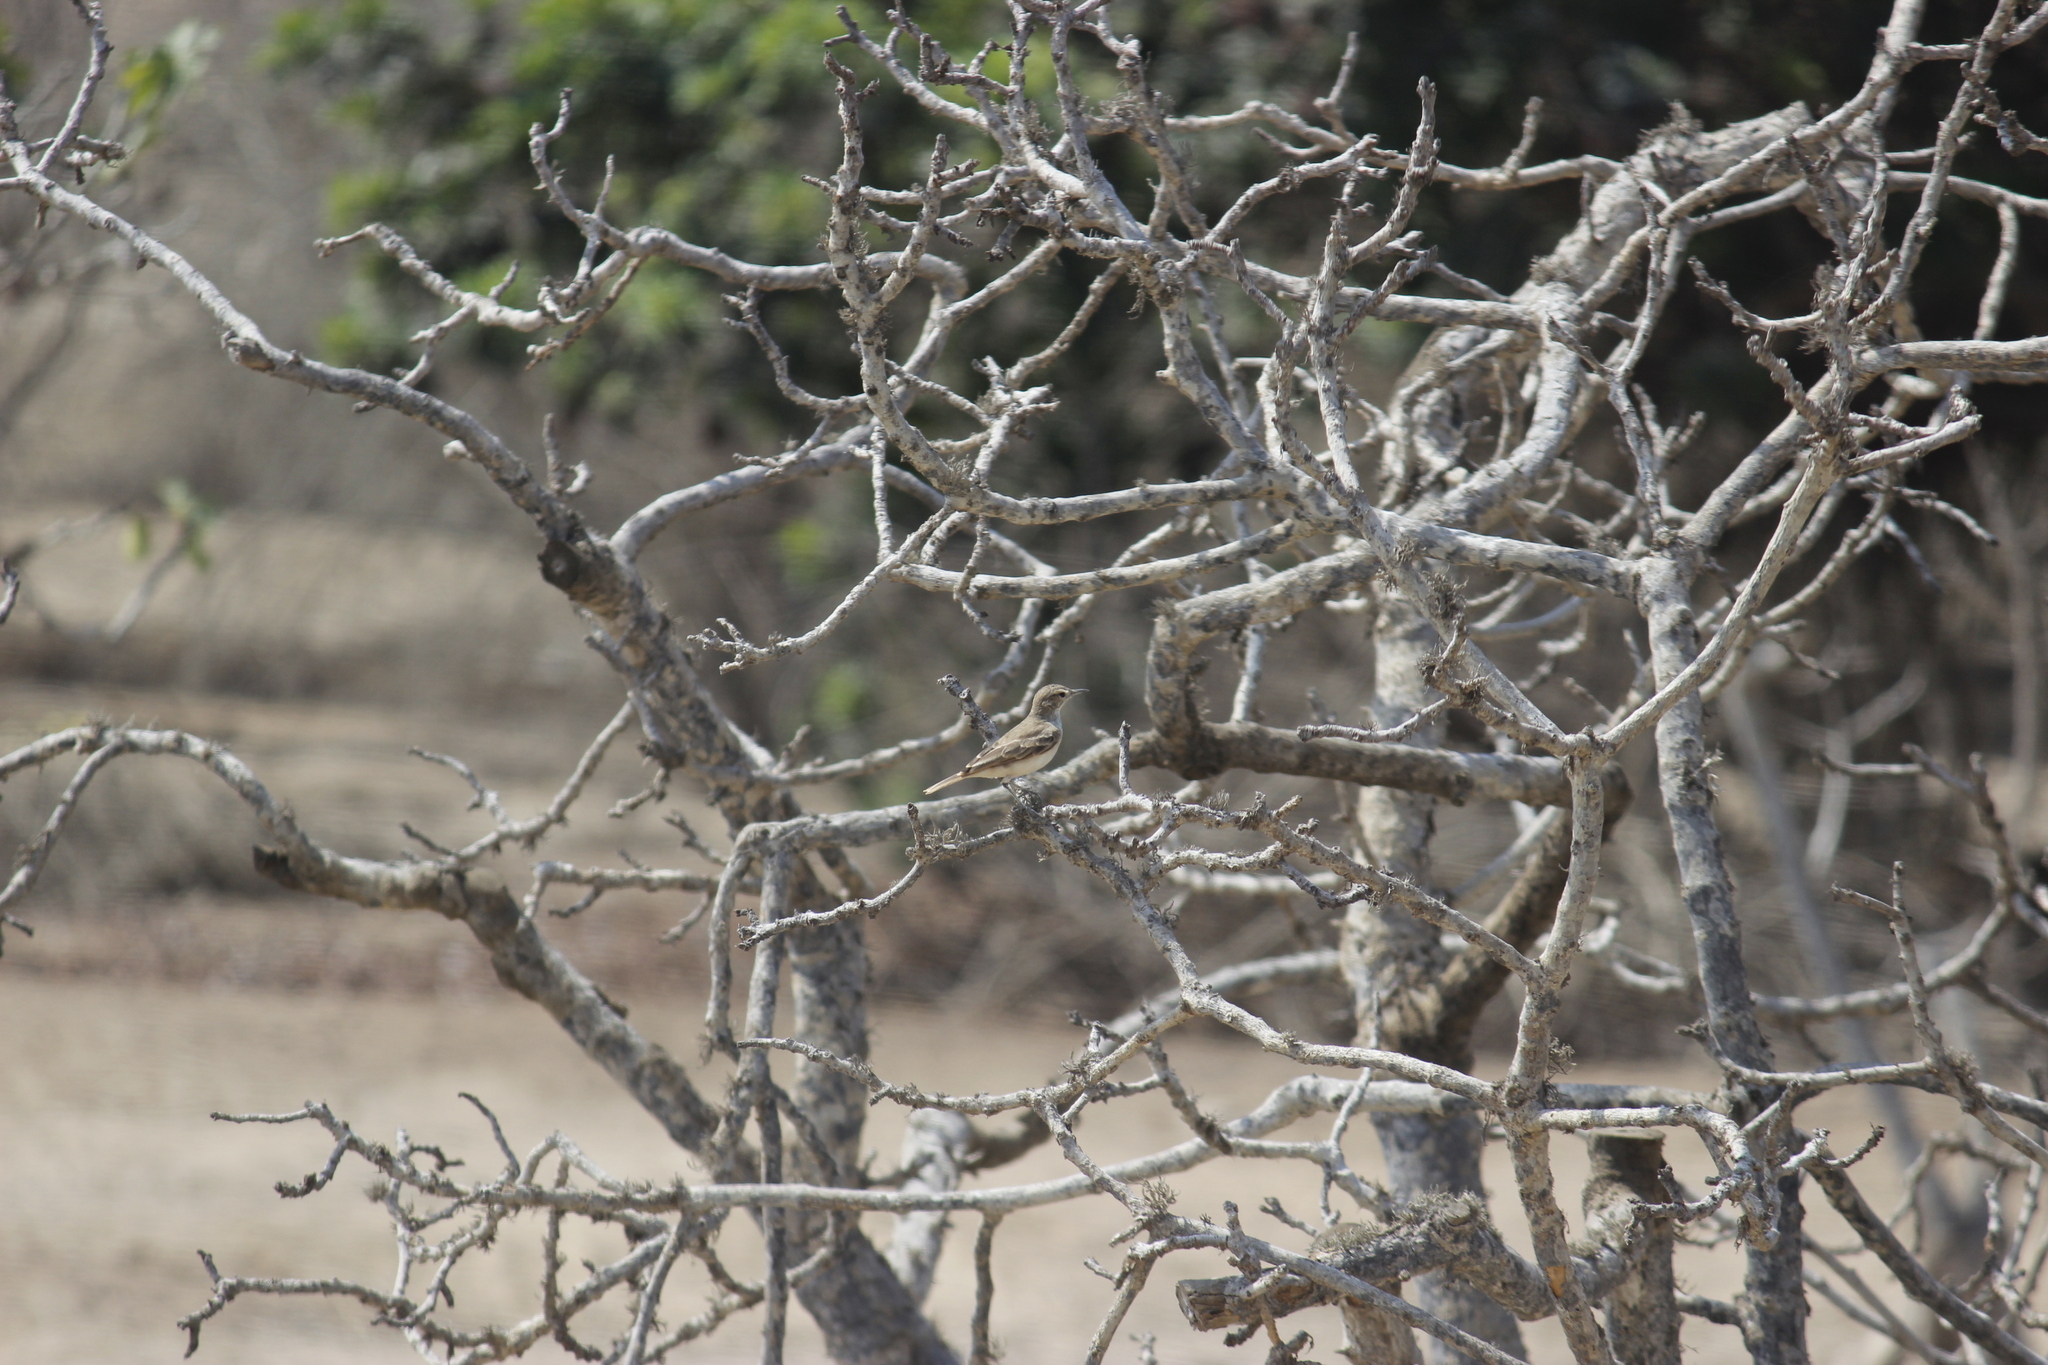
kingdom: Animalia
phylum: Chordata
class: Aves
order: Passeriformes
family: Furnariidae
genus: Geositta
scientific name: Geositta peruviana
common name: Coastal miner
